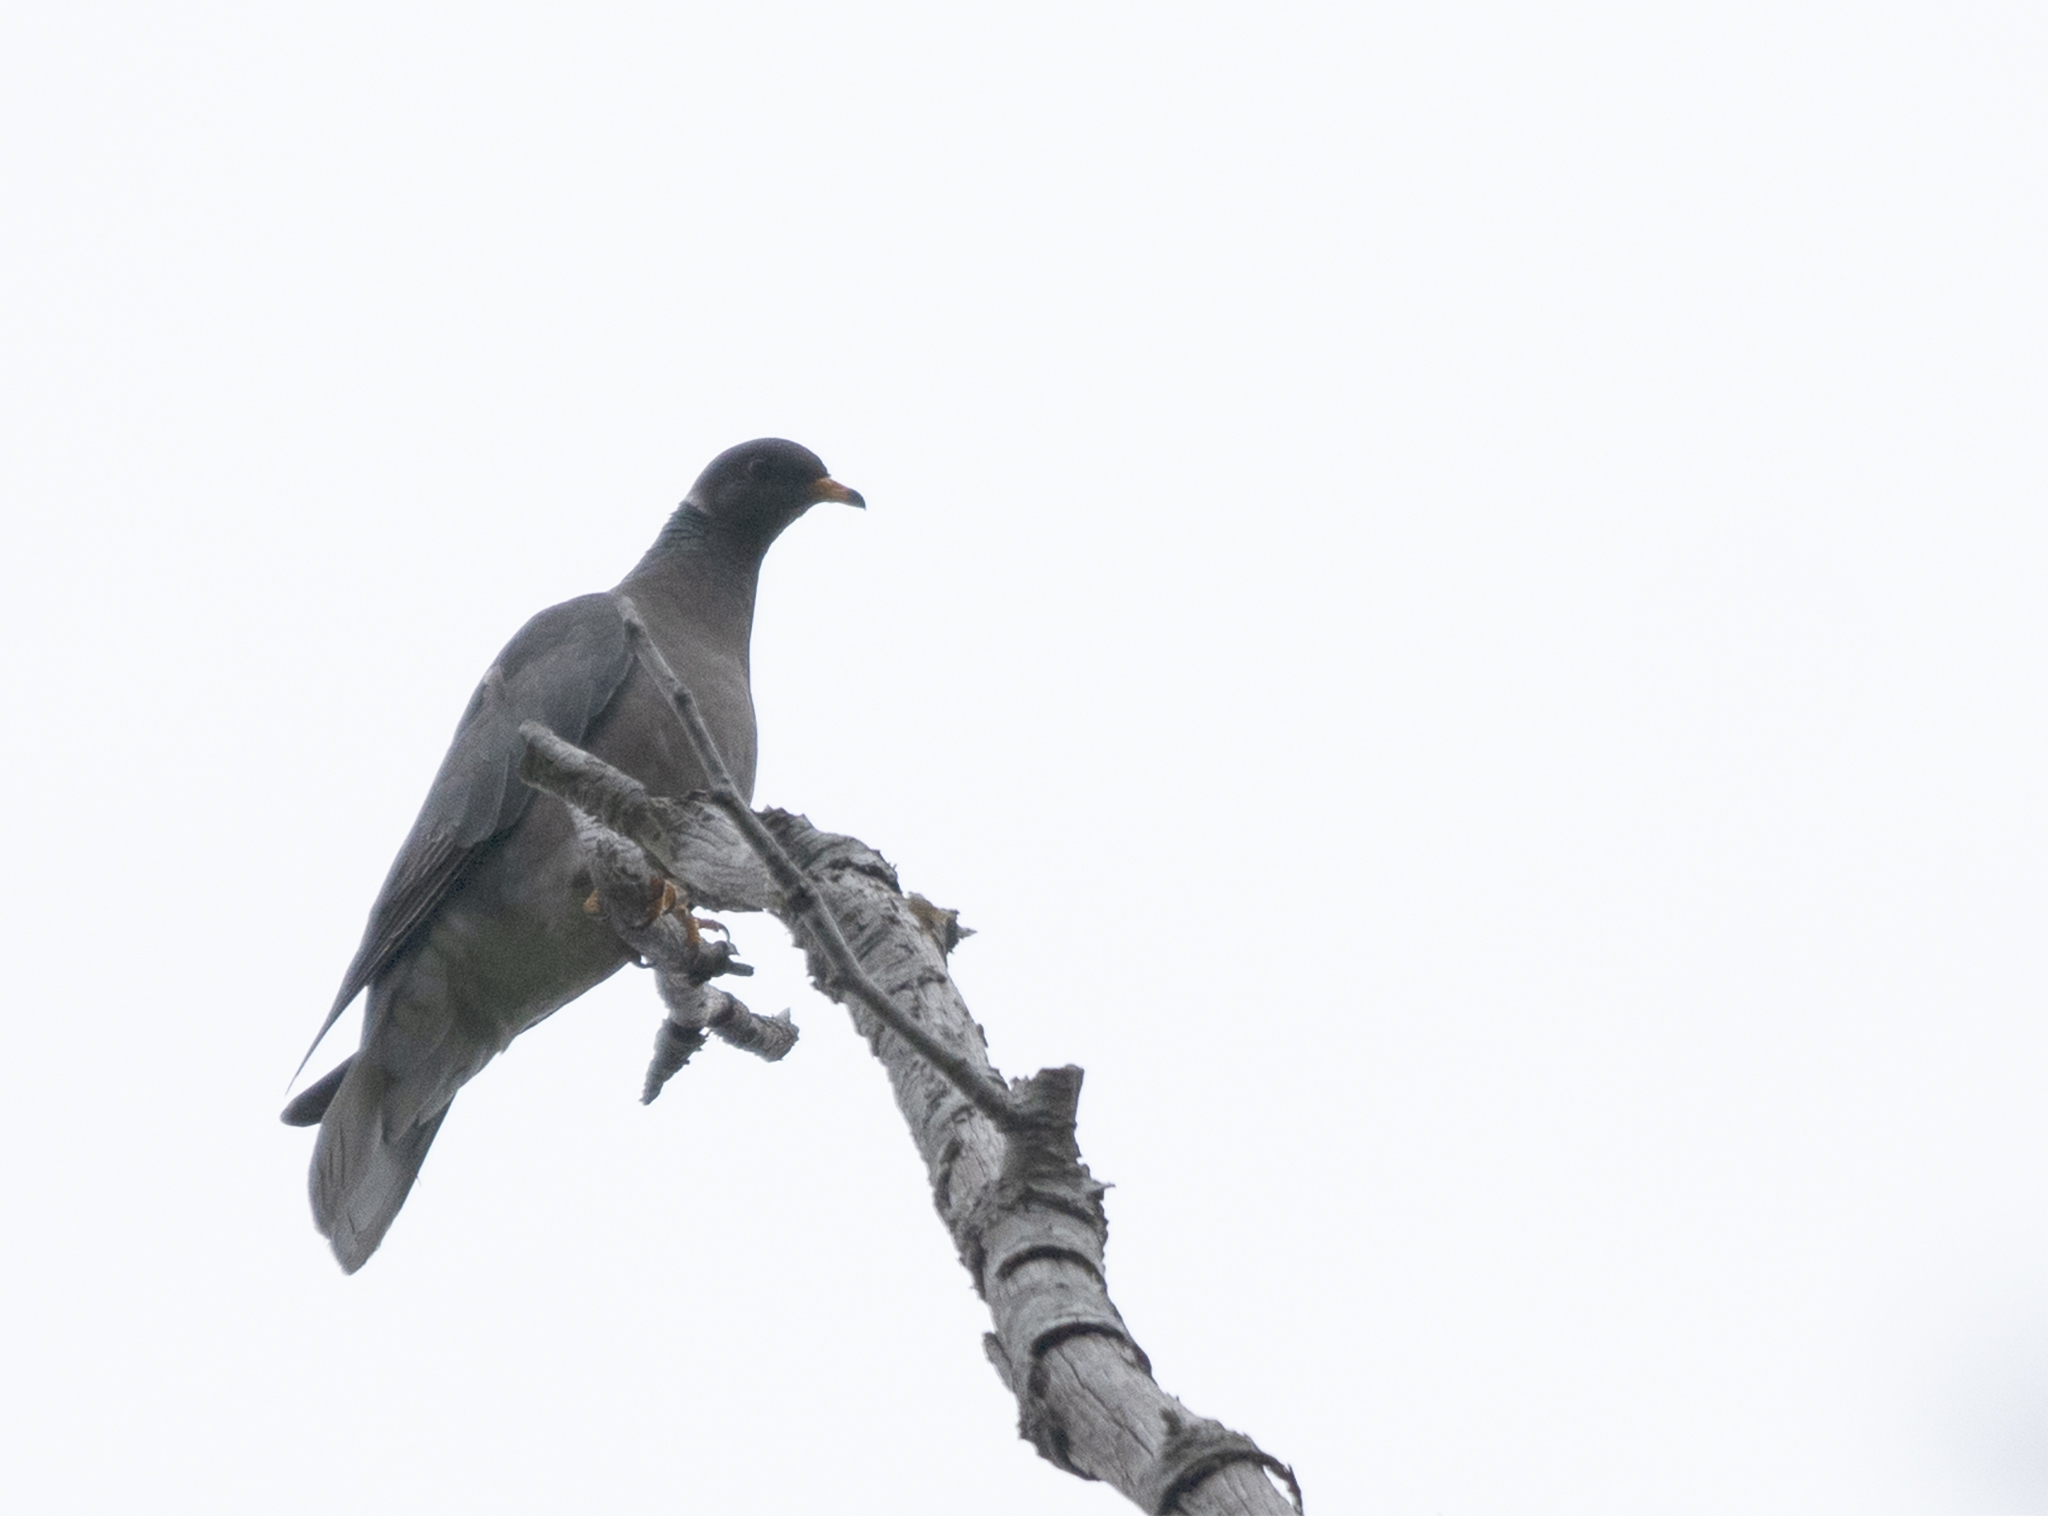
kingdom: Animalia
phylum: Chordata
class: Aves
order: Columbiformes
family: Columbidae
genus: Patagioenas
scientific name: Patagioenas fasciata
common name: Band-tailed pigeon
